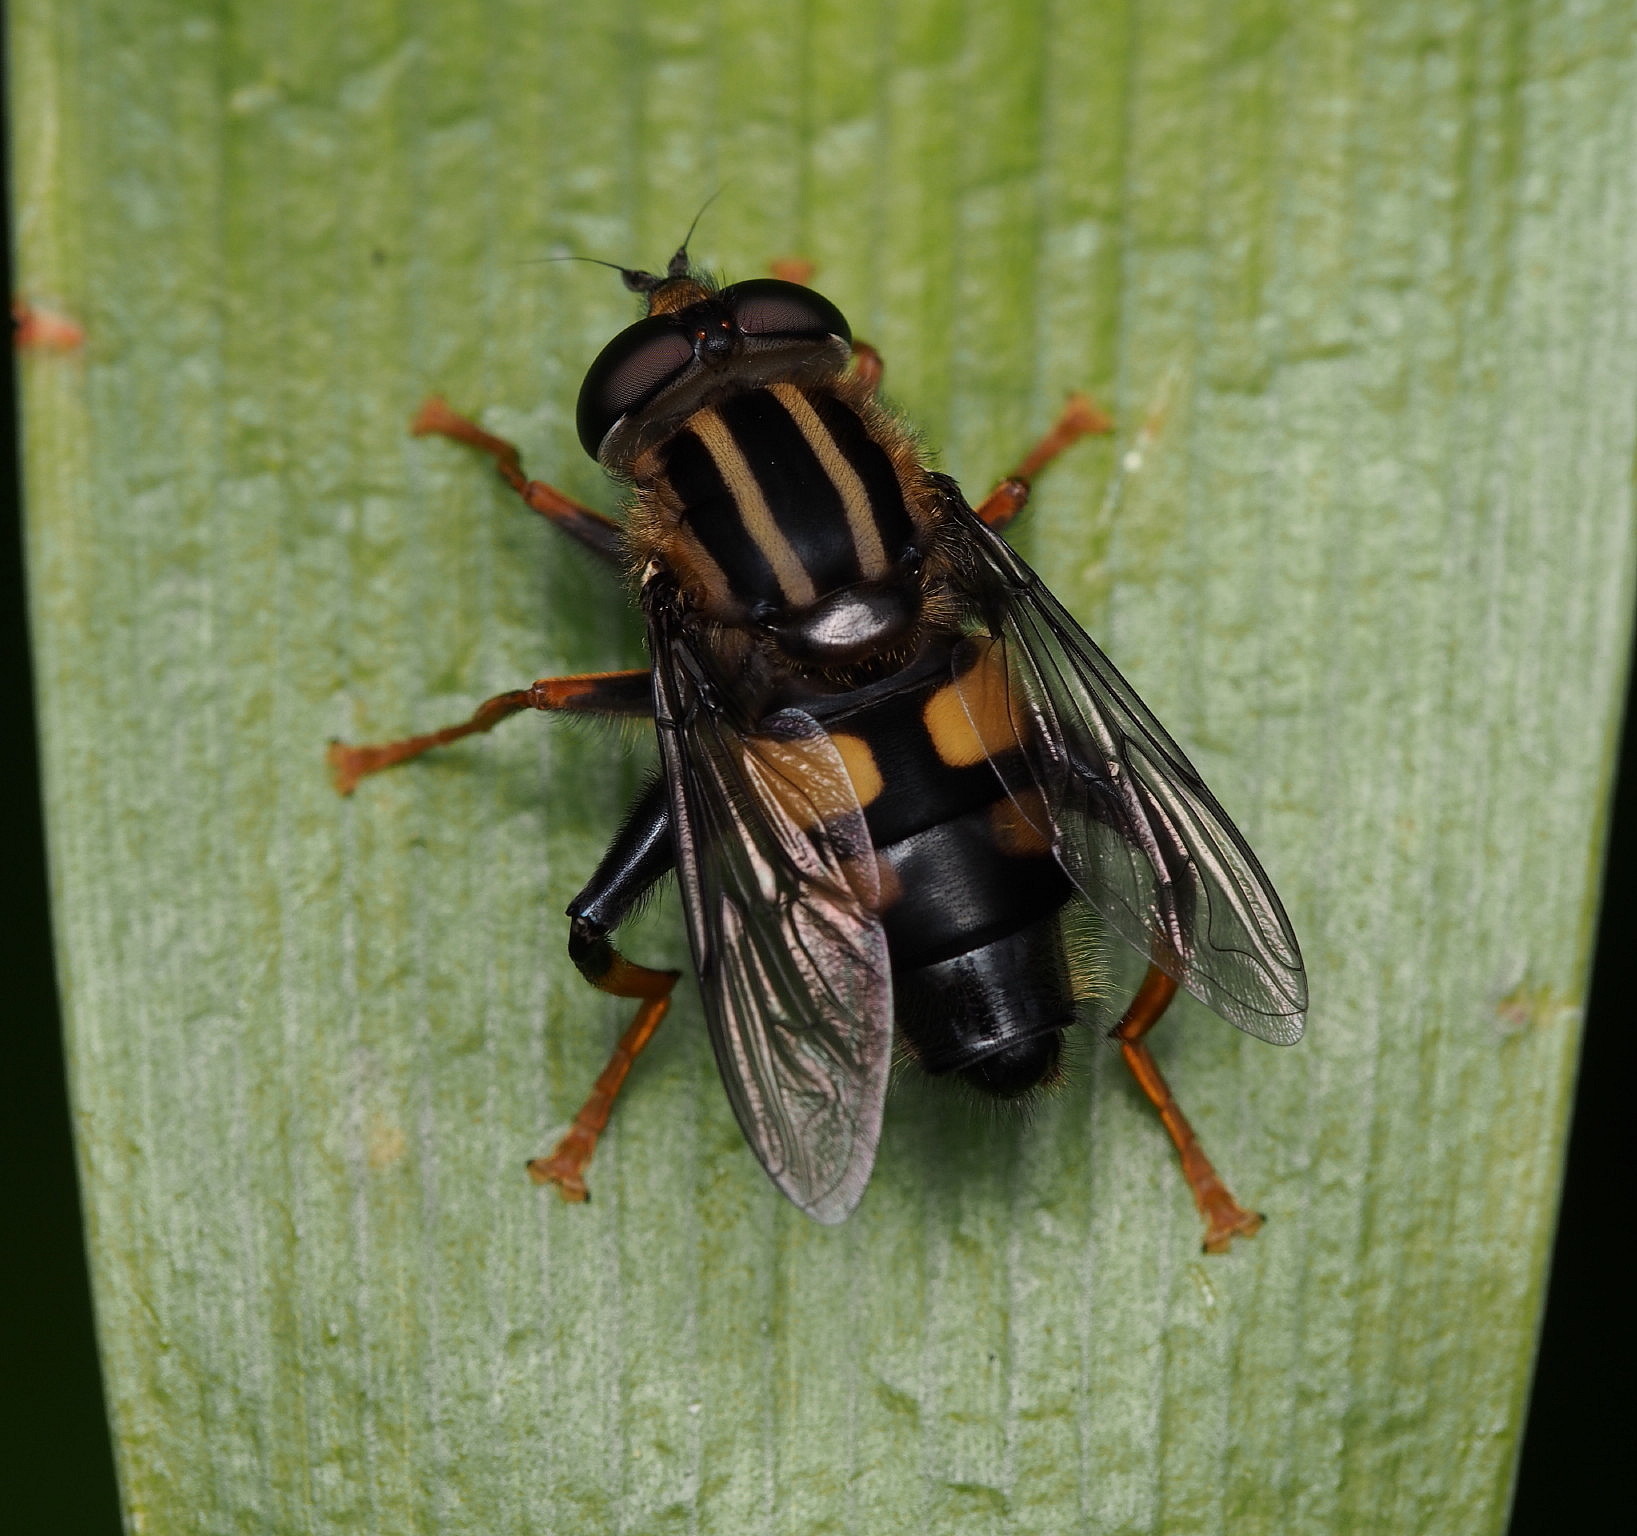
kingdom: Animalia
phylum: Arthropoda
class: Insecta
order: Diptera
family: Syrphidae
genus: Helophilus
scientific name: Helophilus seelandicus
